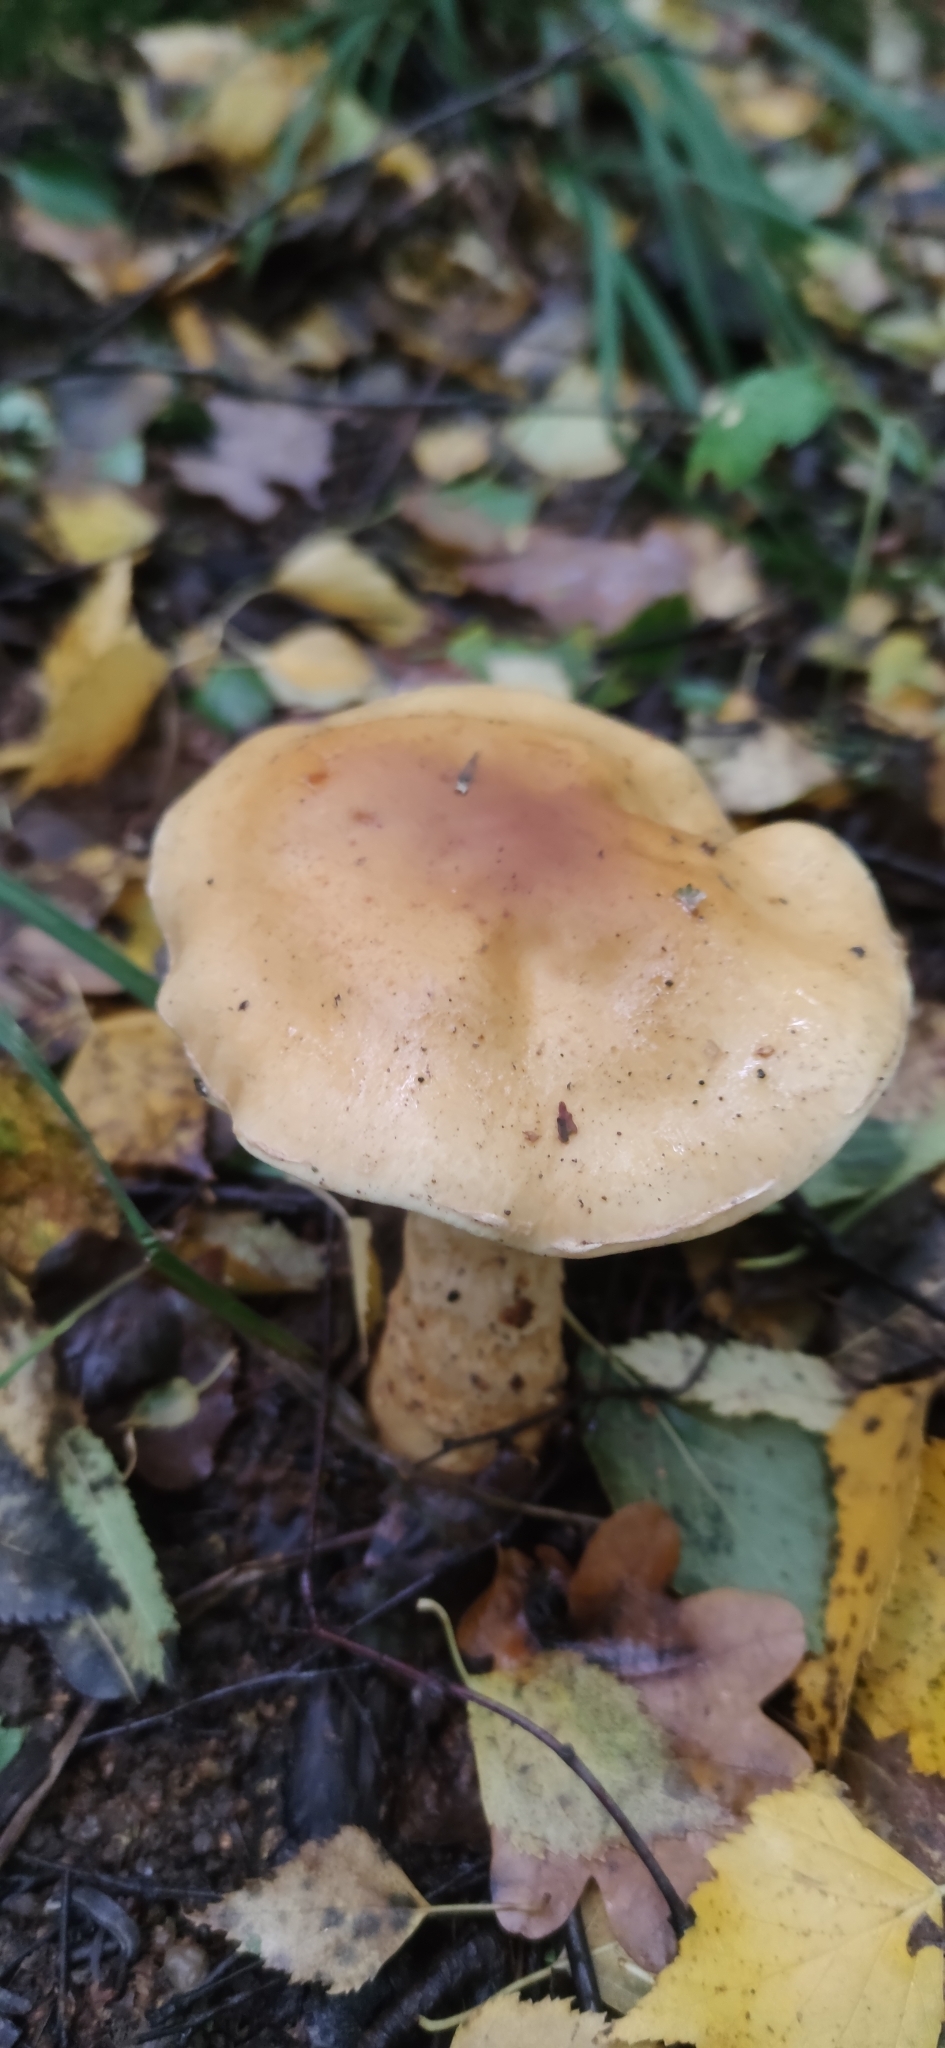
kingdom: Fungi
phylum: Basidiomycota
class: Agaricomycetes
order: Agaricales
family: Cortinariaceae
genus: Phlegmacium
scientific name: Phlegmacium triumphans
